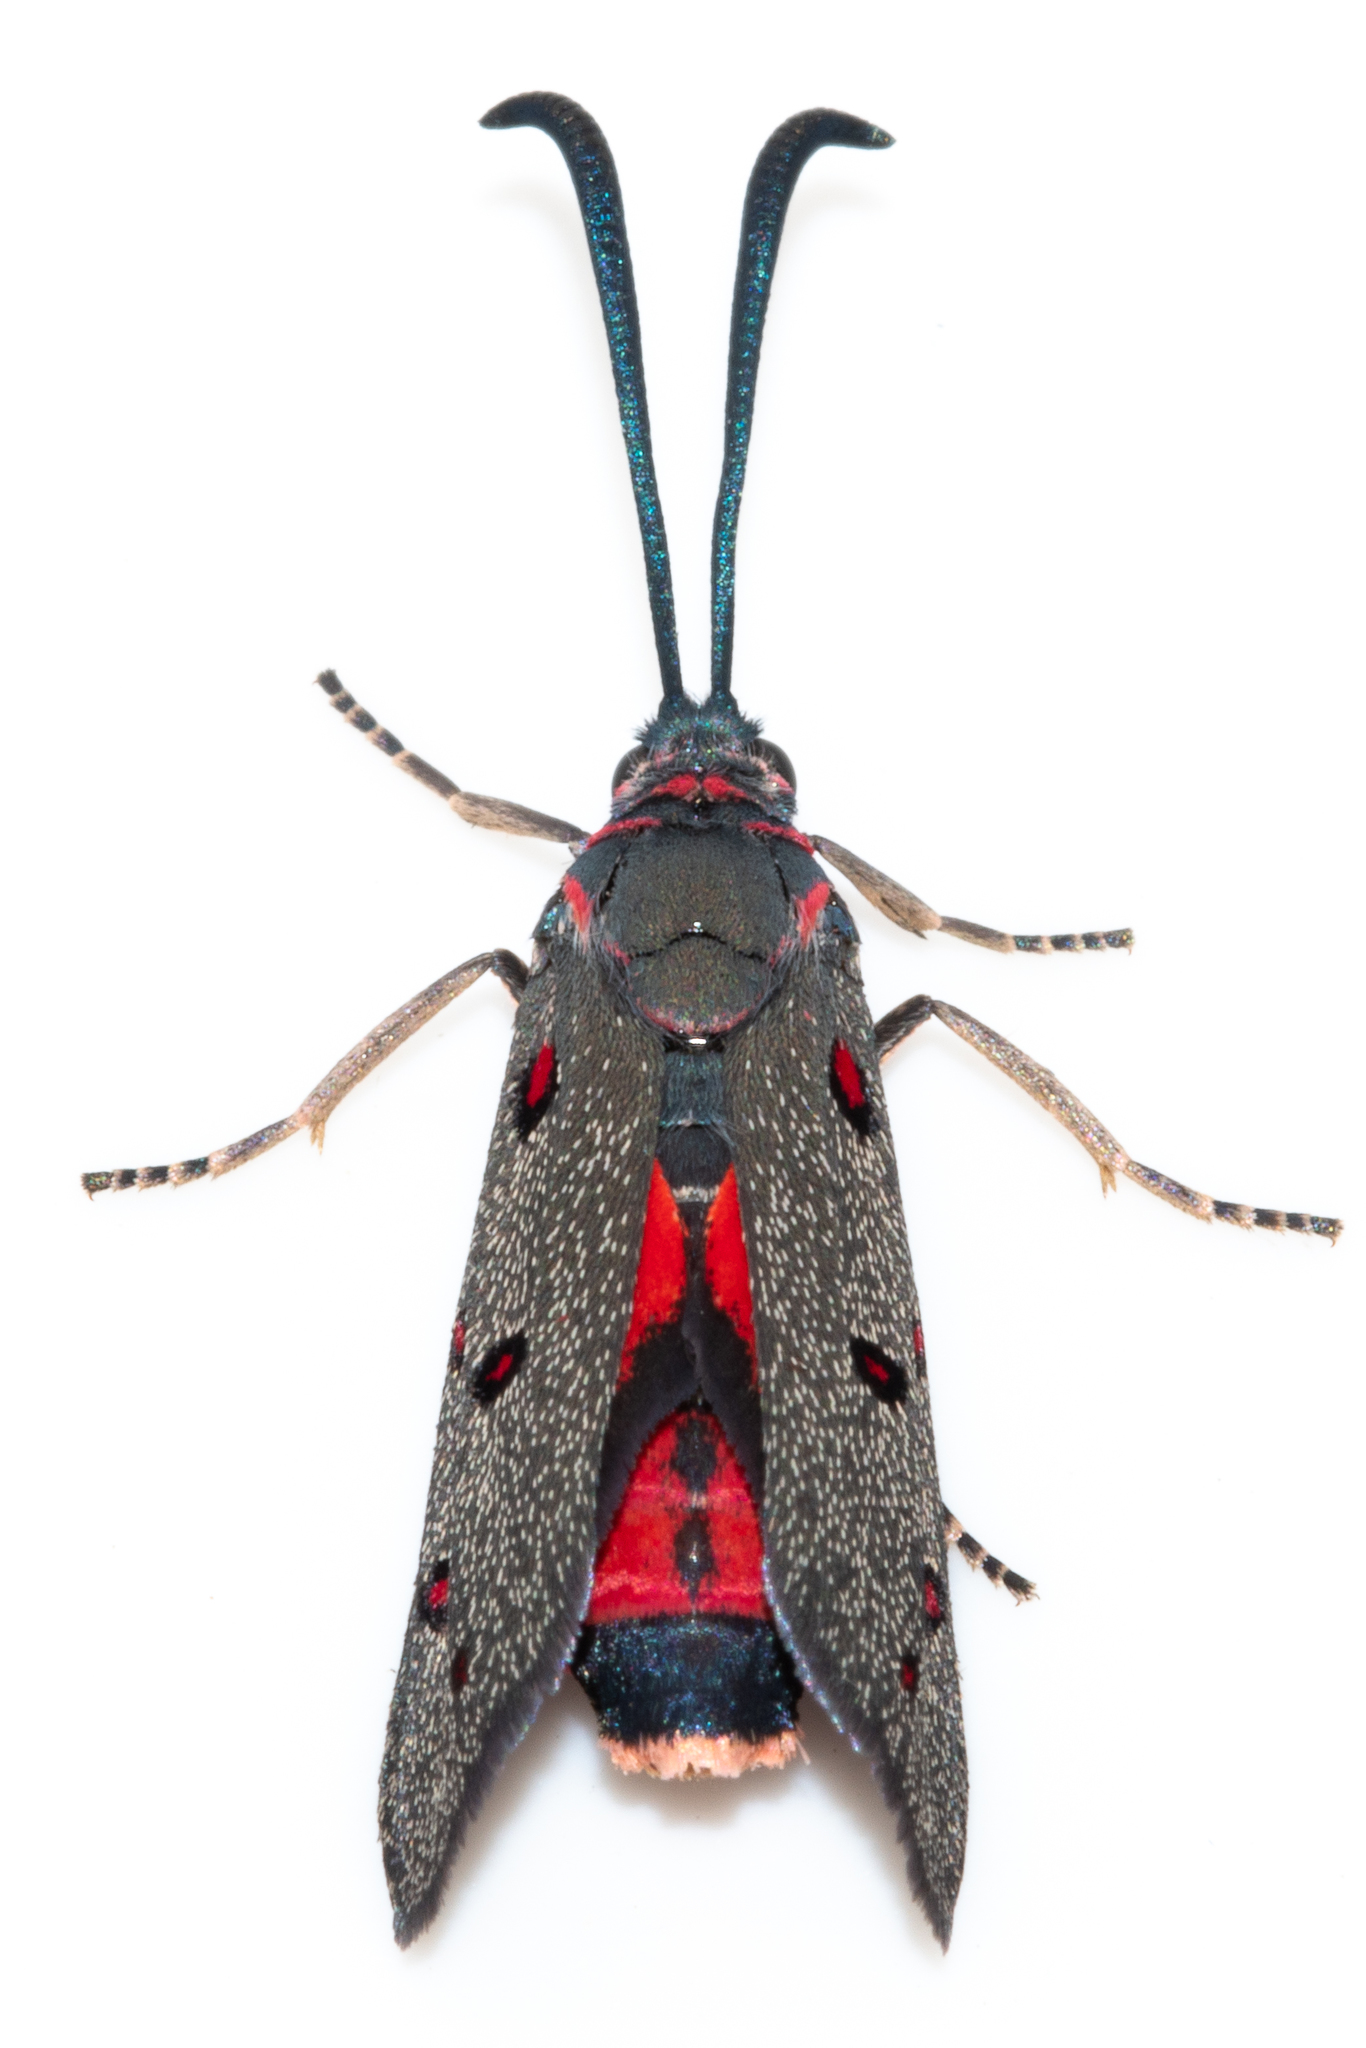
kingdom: Animalia
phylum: Arthropoda
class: Insecta
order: Lepidoptera
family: Zygaenidae
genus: Neurosymploca
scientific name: Neurosymploca kushaica
